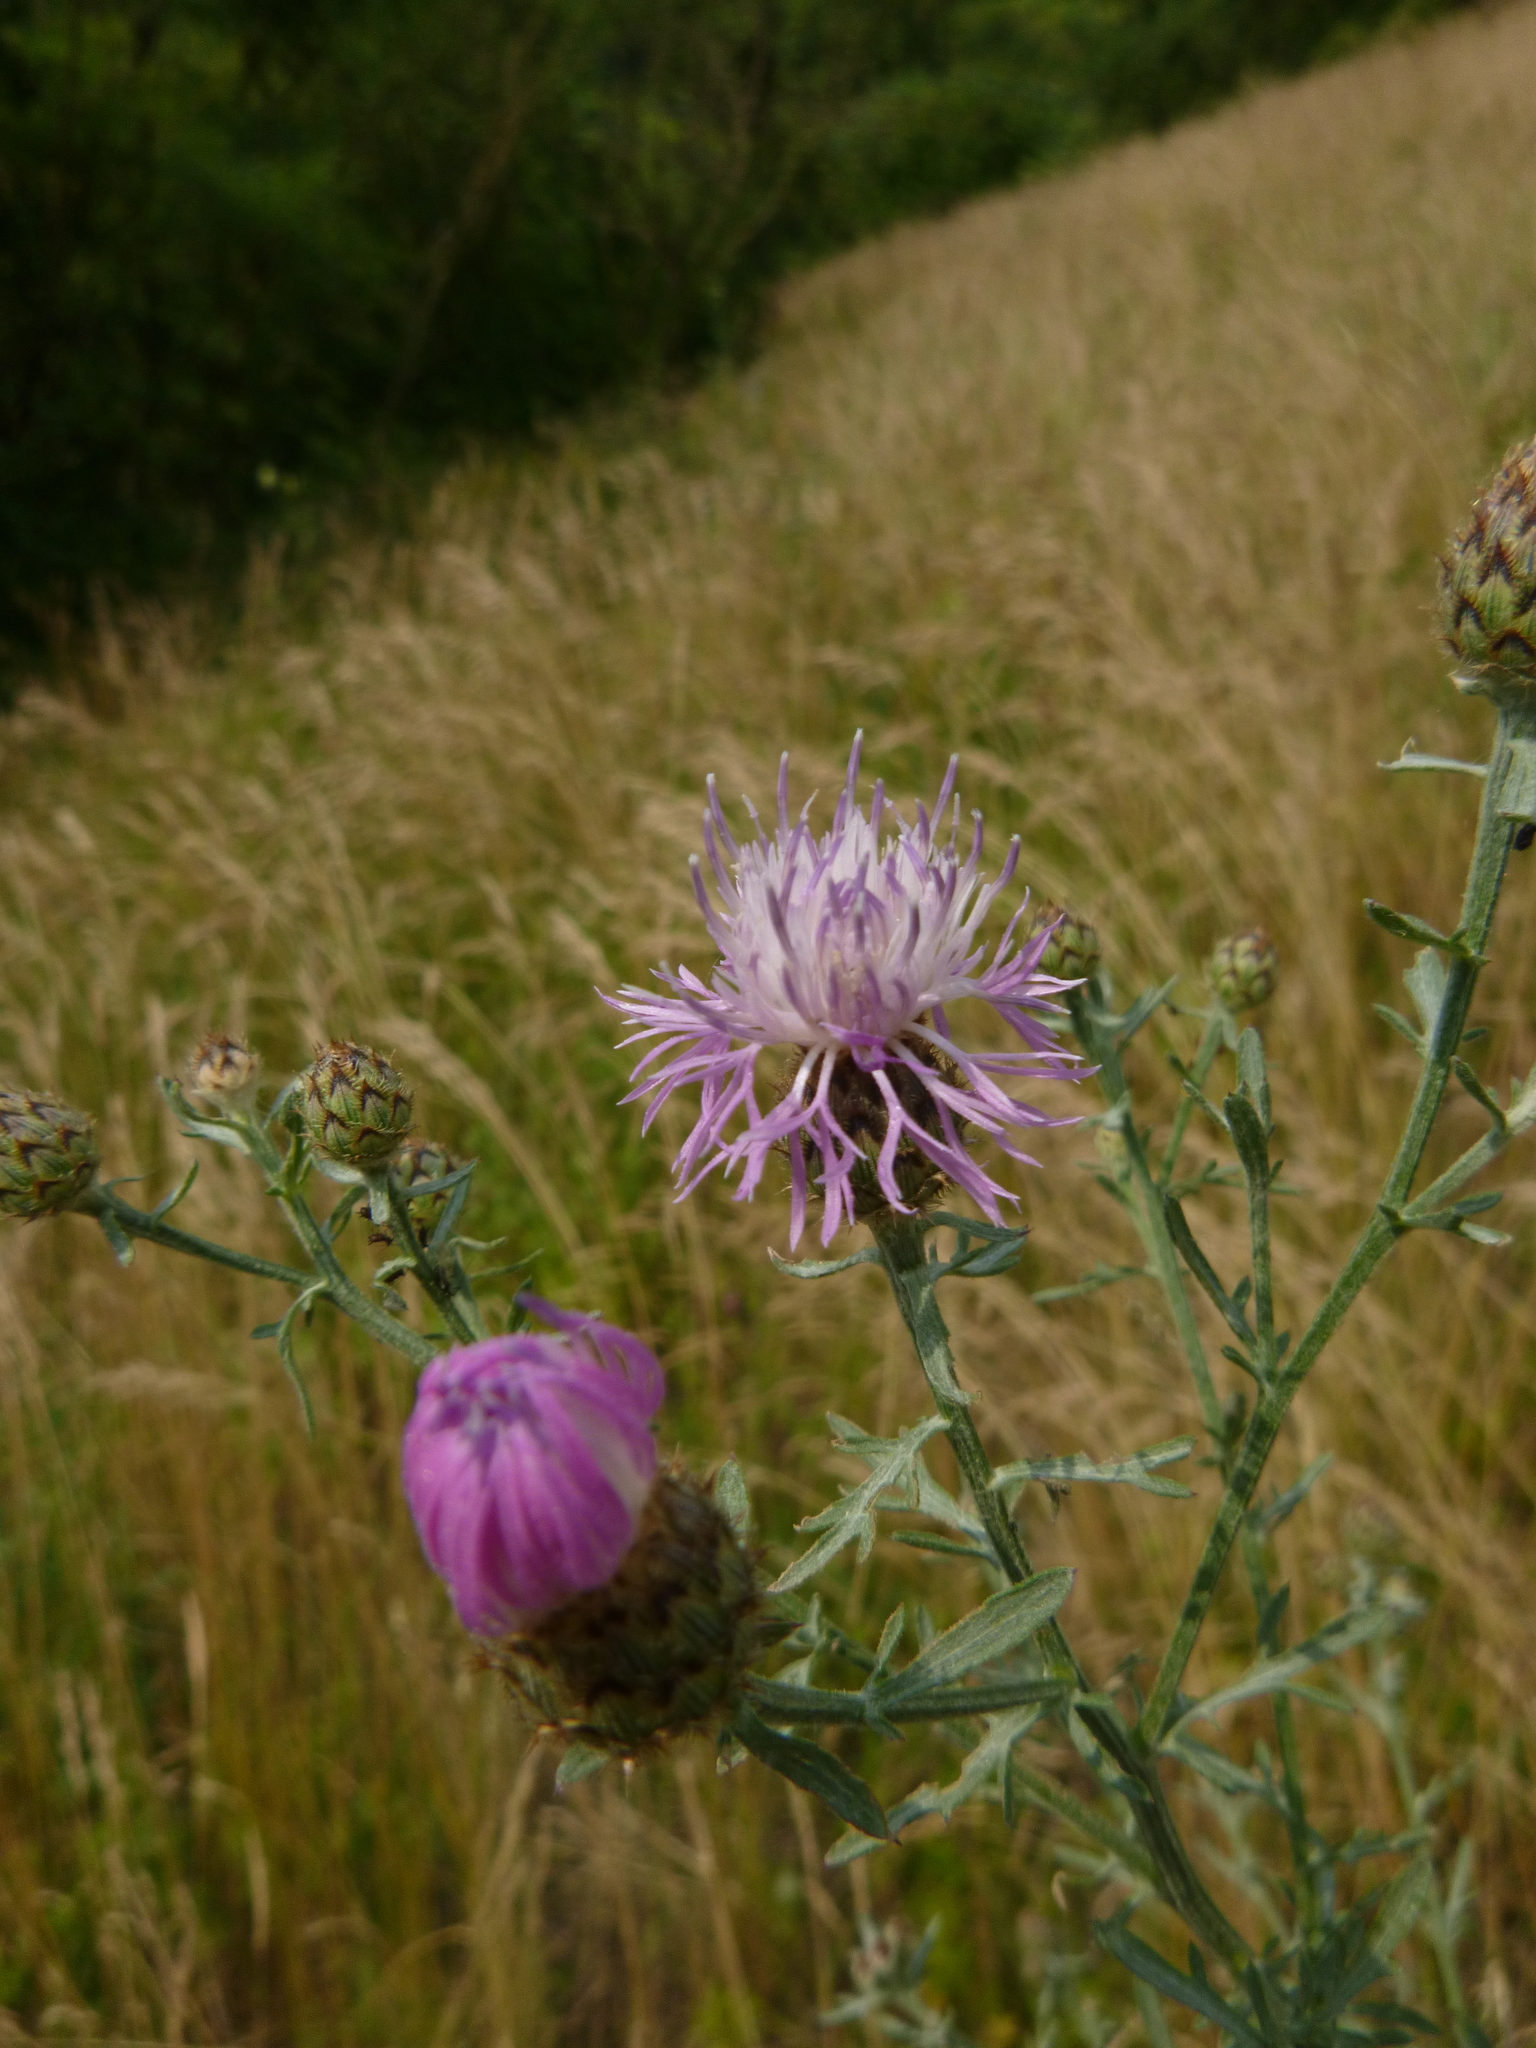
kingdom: Plantae
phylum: Tracheophyta
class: Magnoliopsida
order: Asterales
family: Asteraceae
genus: Centaurea
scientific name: Centaurea stoebe
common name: Spotted knapweed
